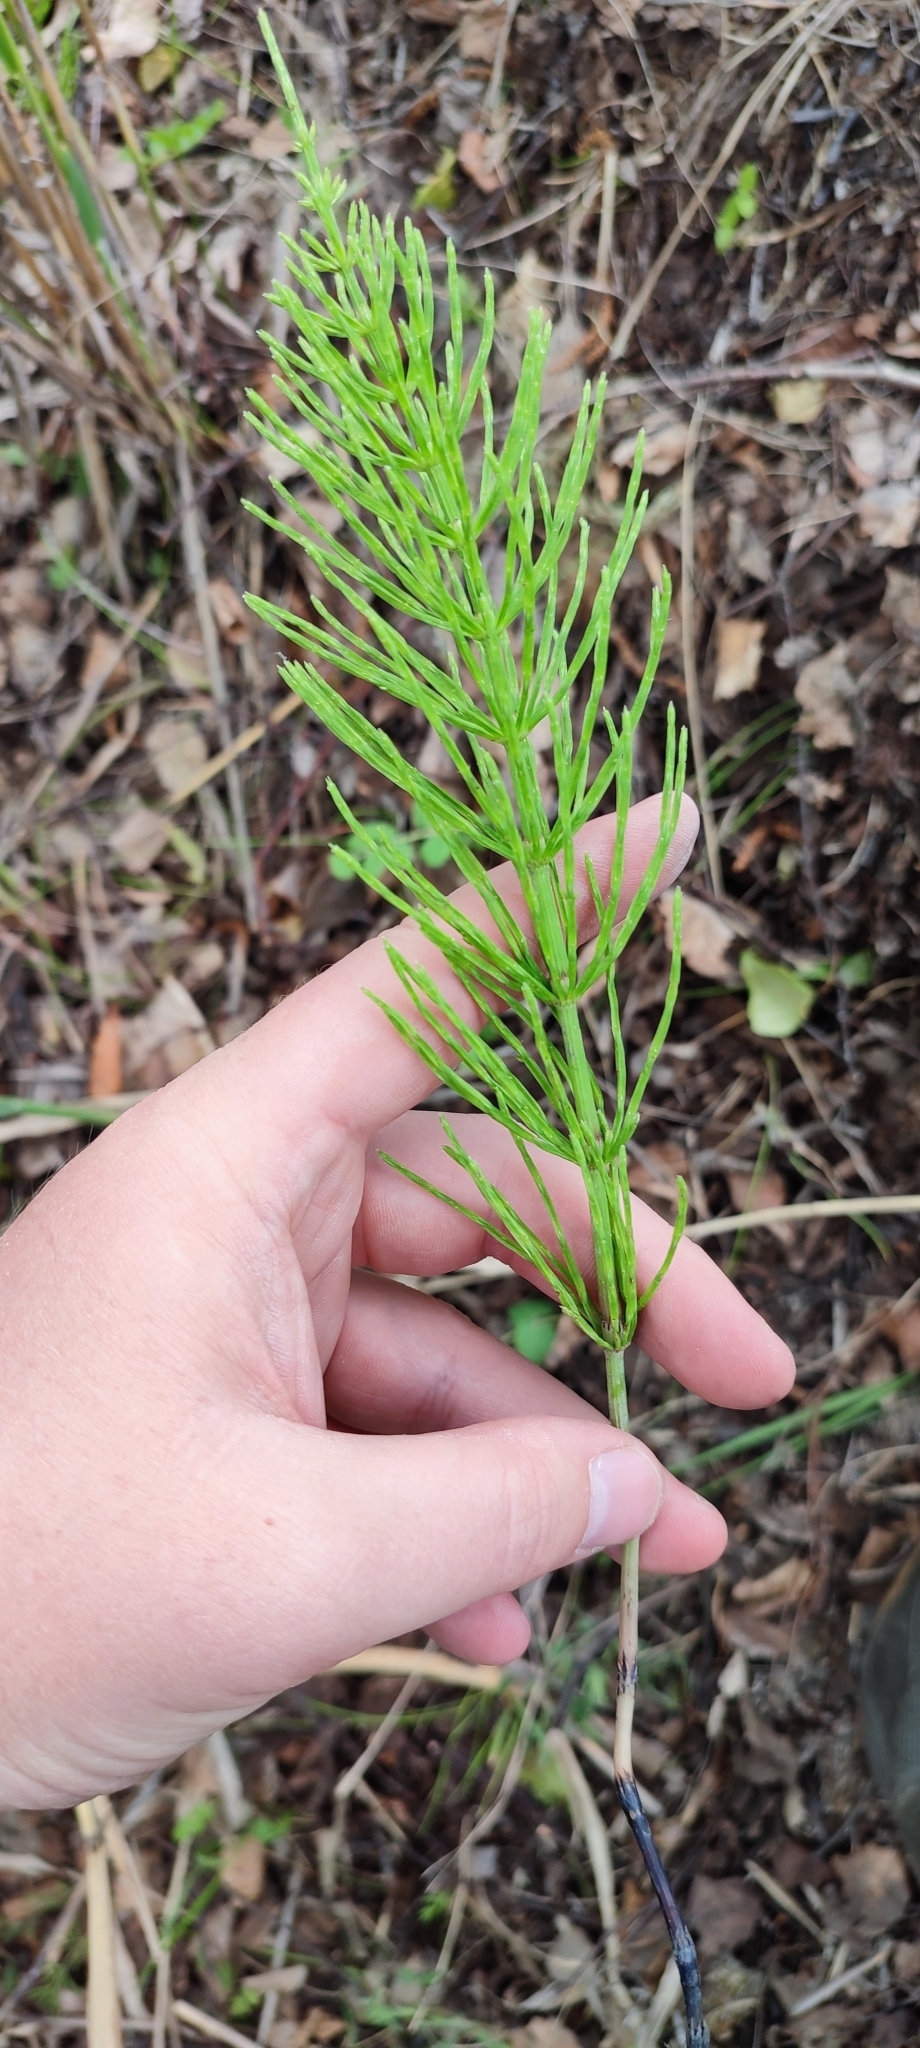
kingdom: Plantae
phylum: Tracheophyta
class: Polypodiopsida
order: Equisetales
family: Equisetaceae
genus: Equisetum
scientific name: Equisetum arvense
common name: Field horsetail
